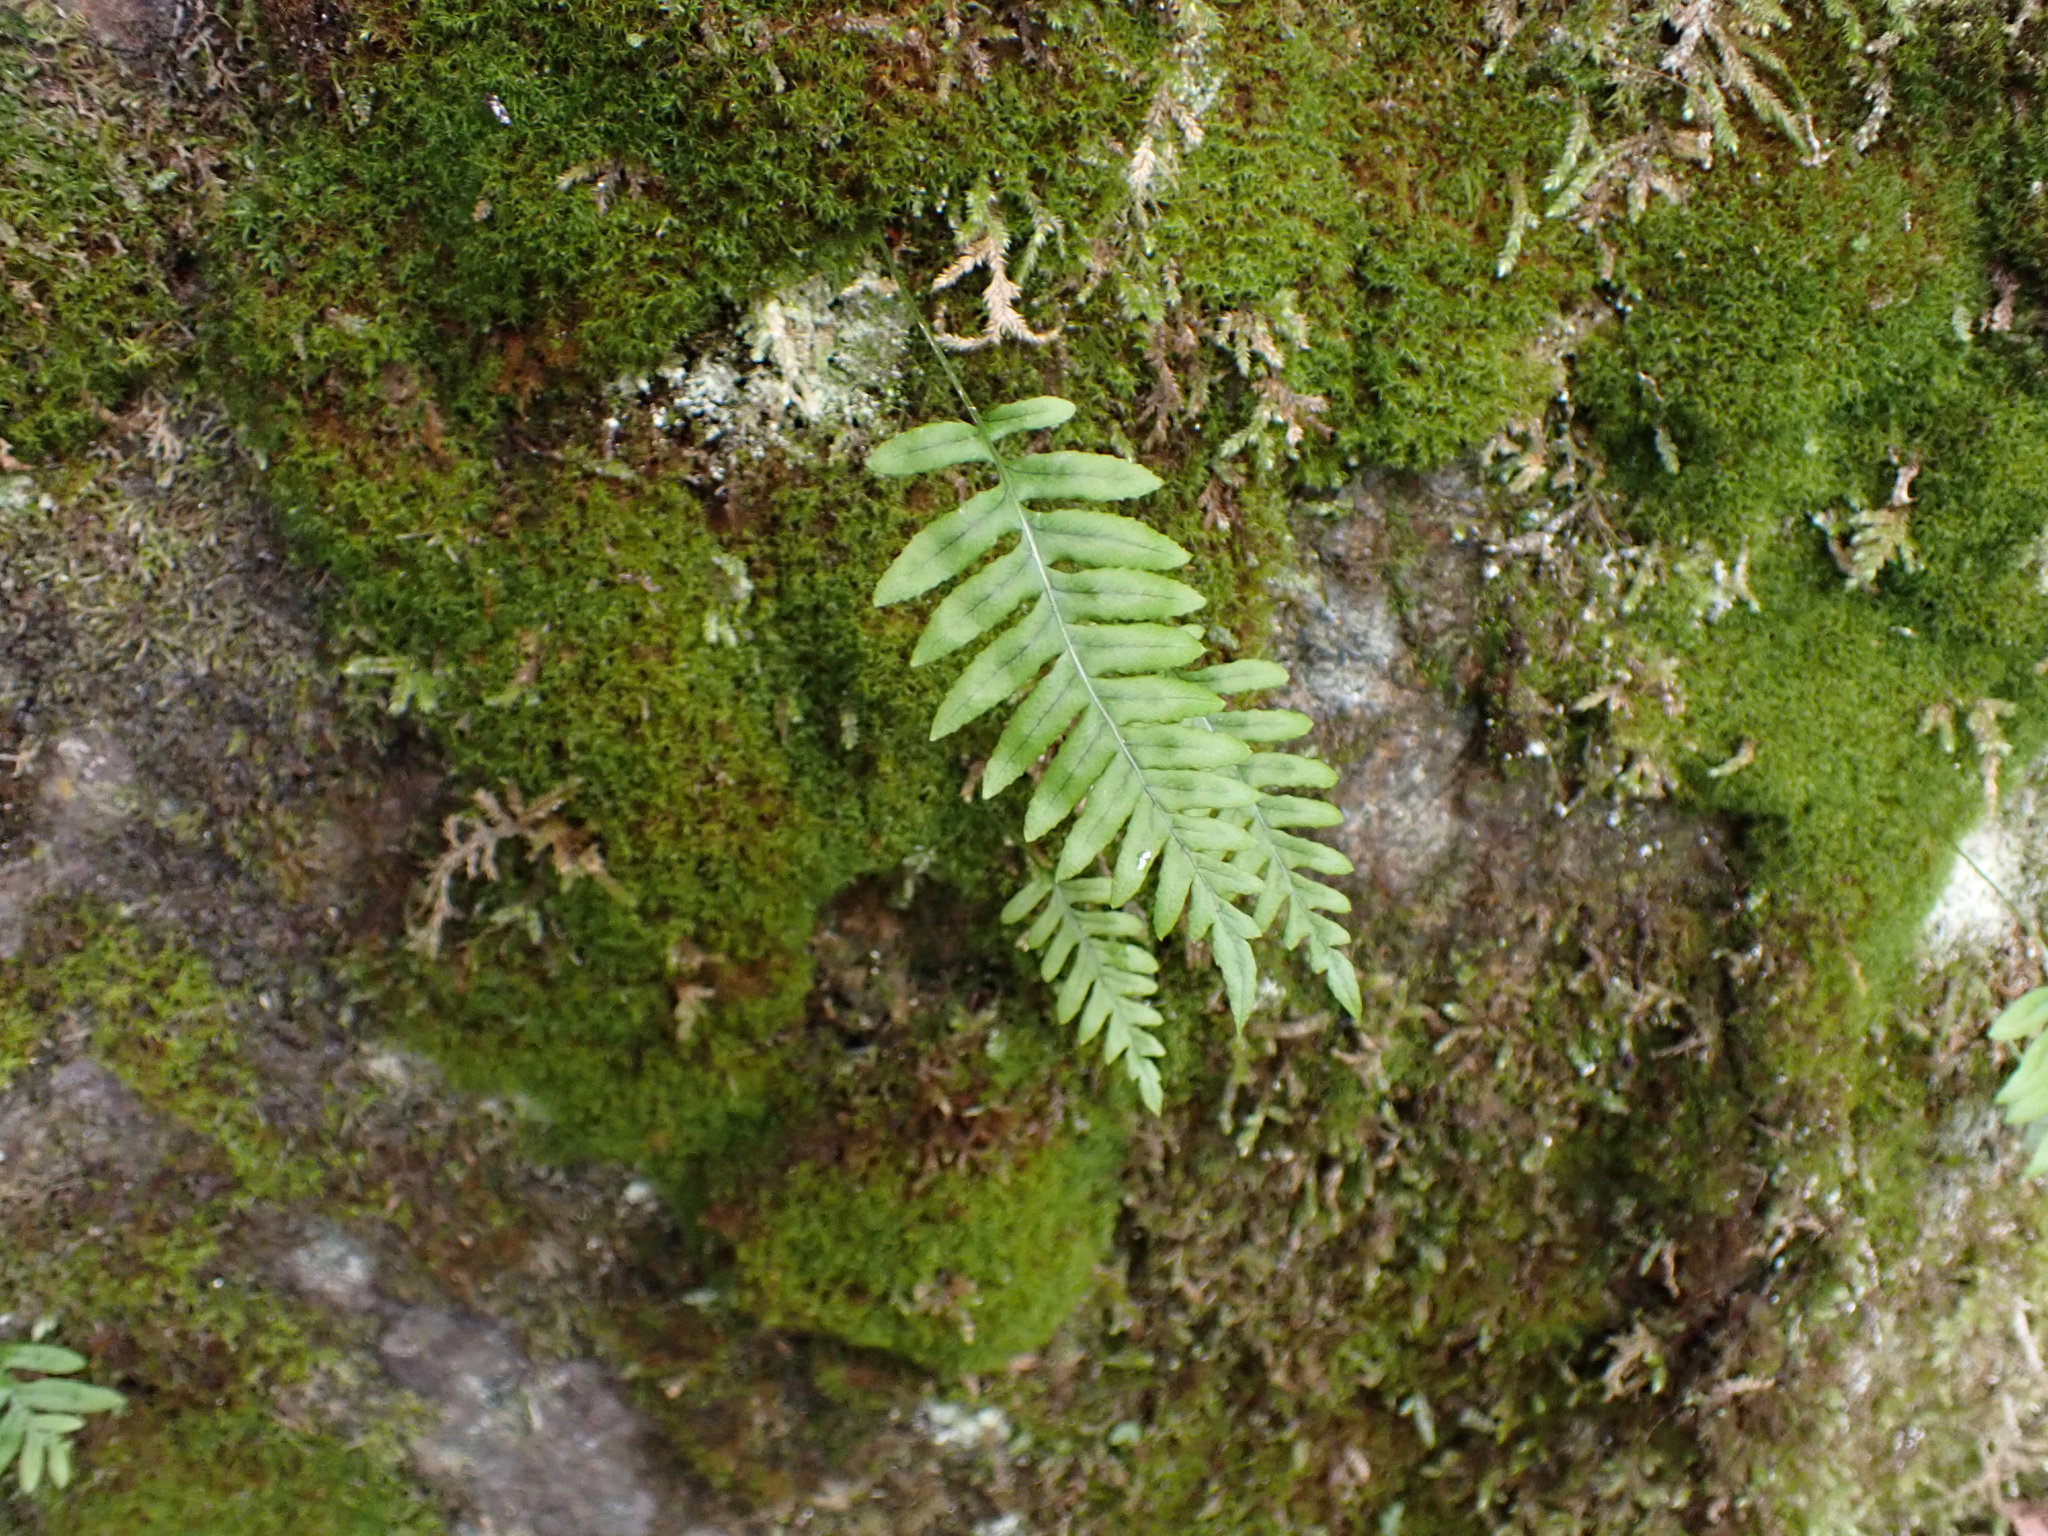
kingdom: Plantae
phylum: Tracheophyta
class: Polypodiopsida
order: Polypodiales
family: Polypodiaceae
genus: Polypodium
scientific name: Polypodium glycyrrhiza
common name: Licorice fern
